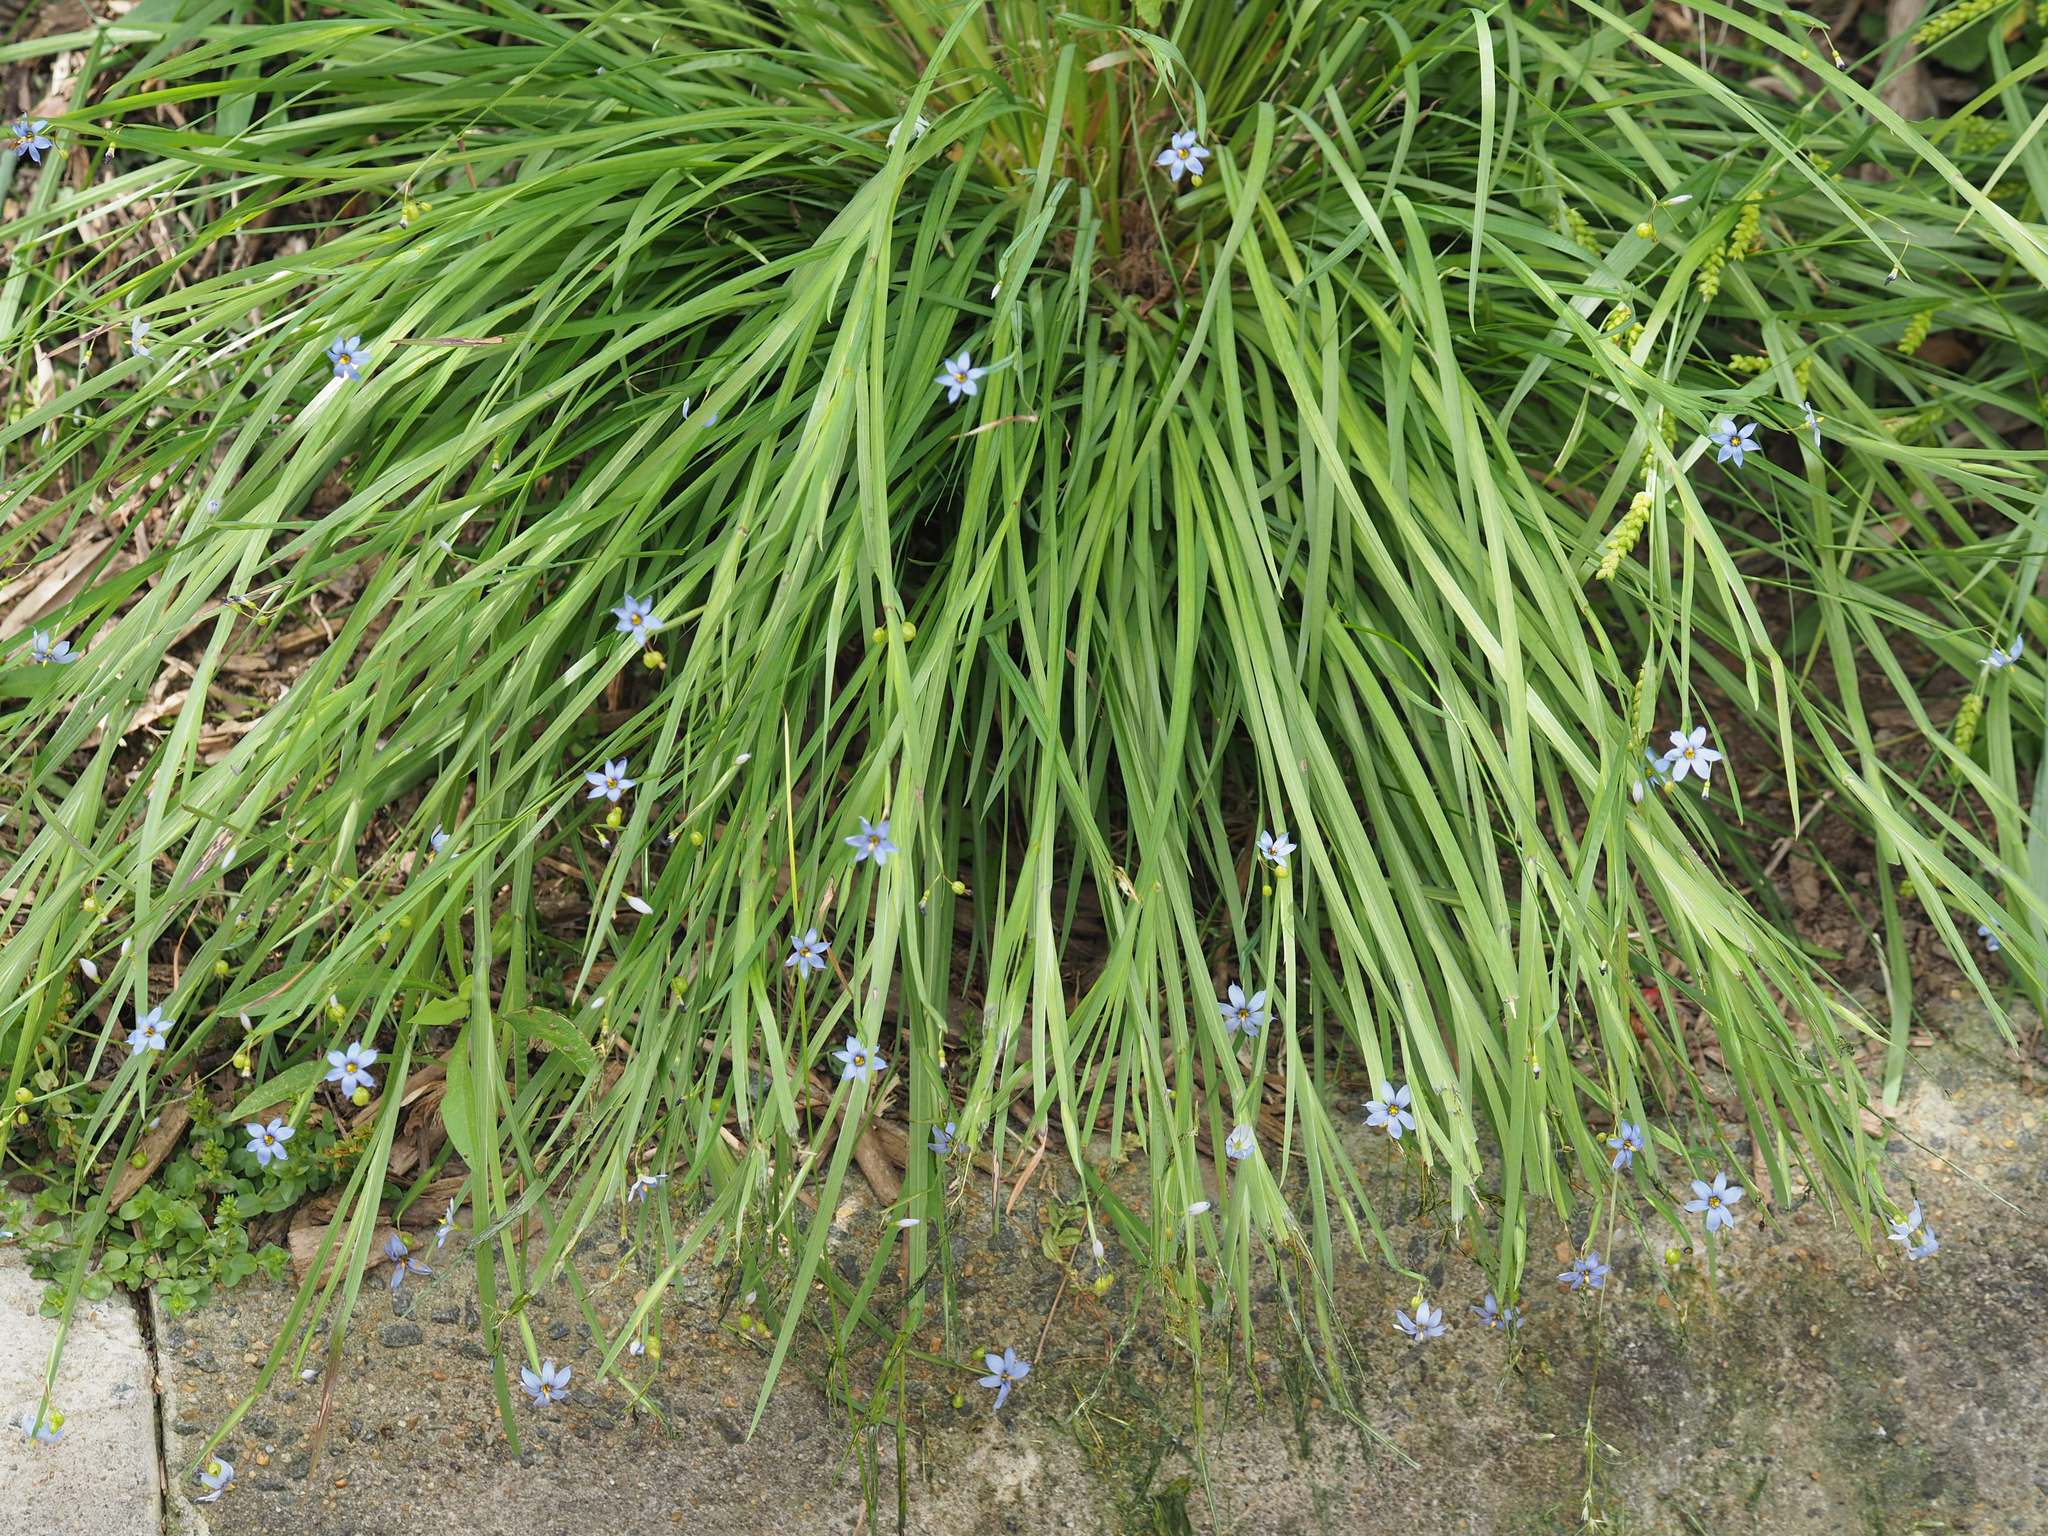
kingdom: Plantae
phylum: Tracheophyta
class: Liliopsida
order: Asparagales
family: Iridaceae
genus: Sisyrinchium
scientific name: Sisyrinchium angustifolium
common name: Narrow-leaf blue-eyed-grass
